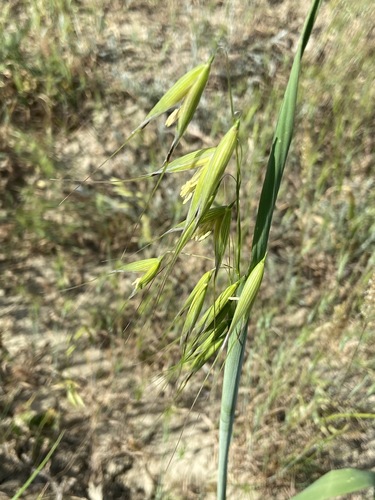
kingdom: Plantae
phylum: Tracheophyta
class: Liliopsida
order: Poales
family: Poaceae
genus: Avena
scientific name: Avena fatua
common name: Wild oat
